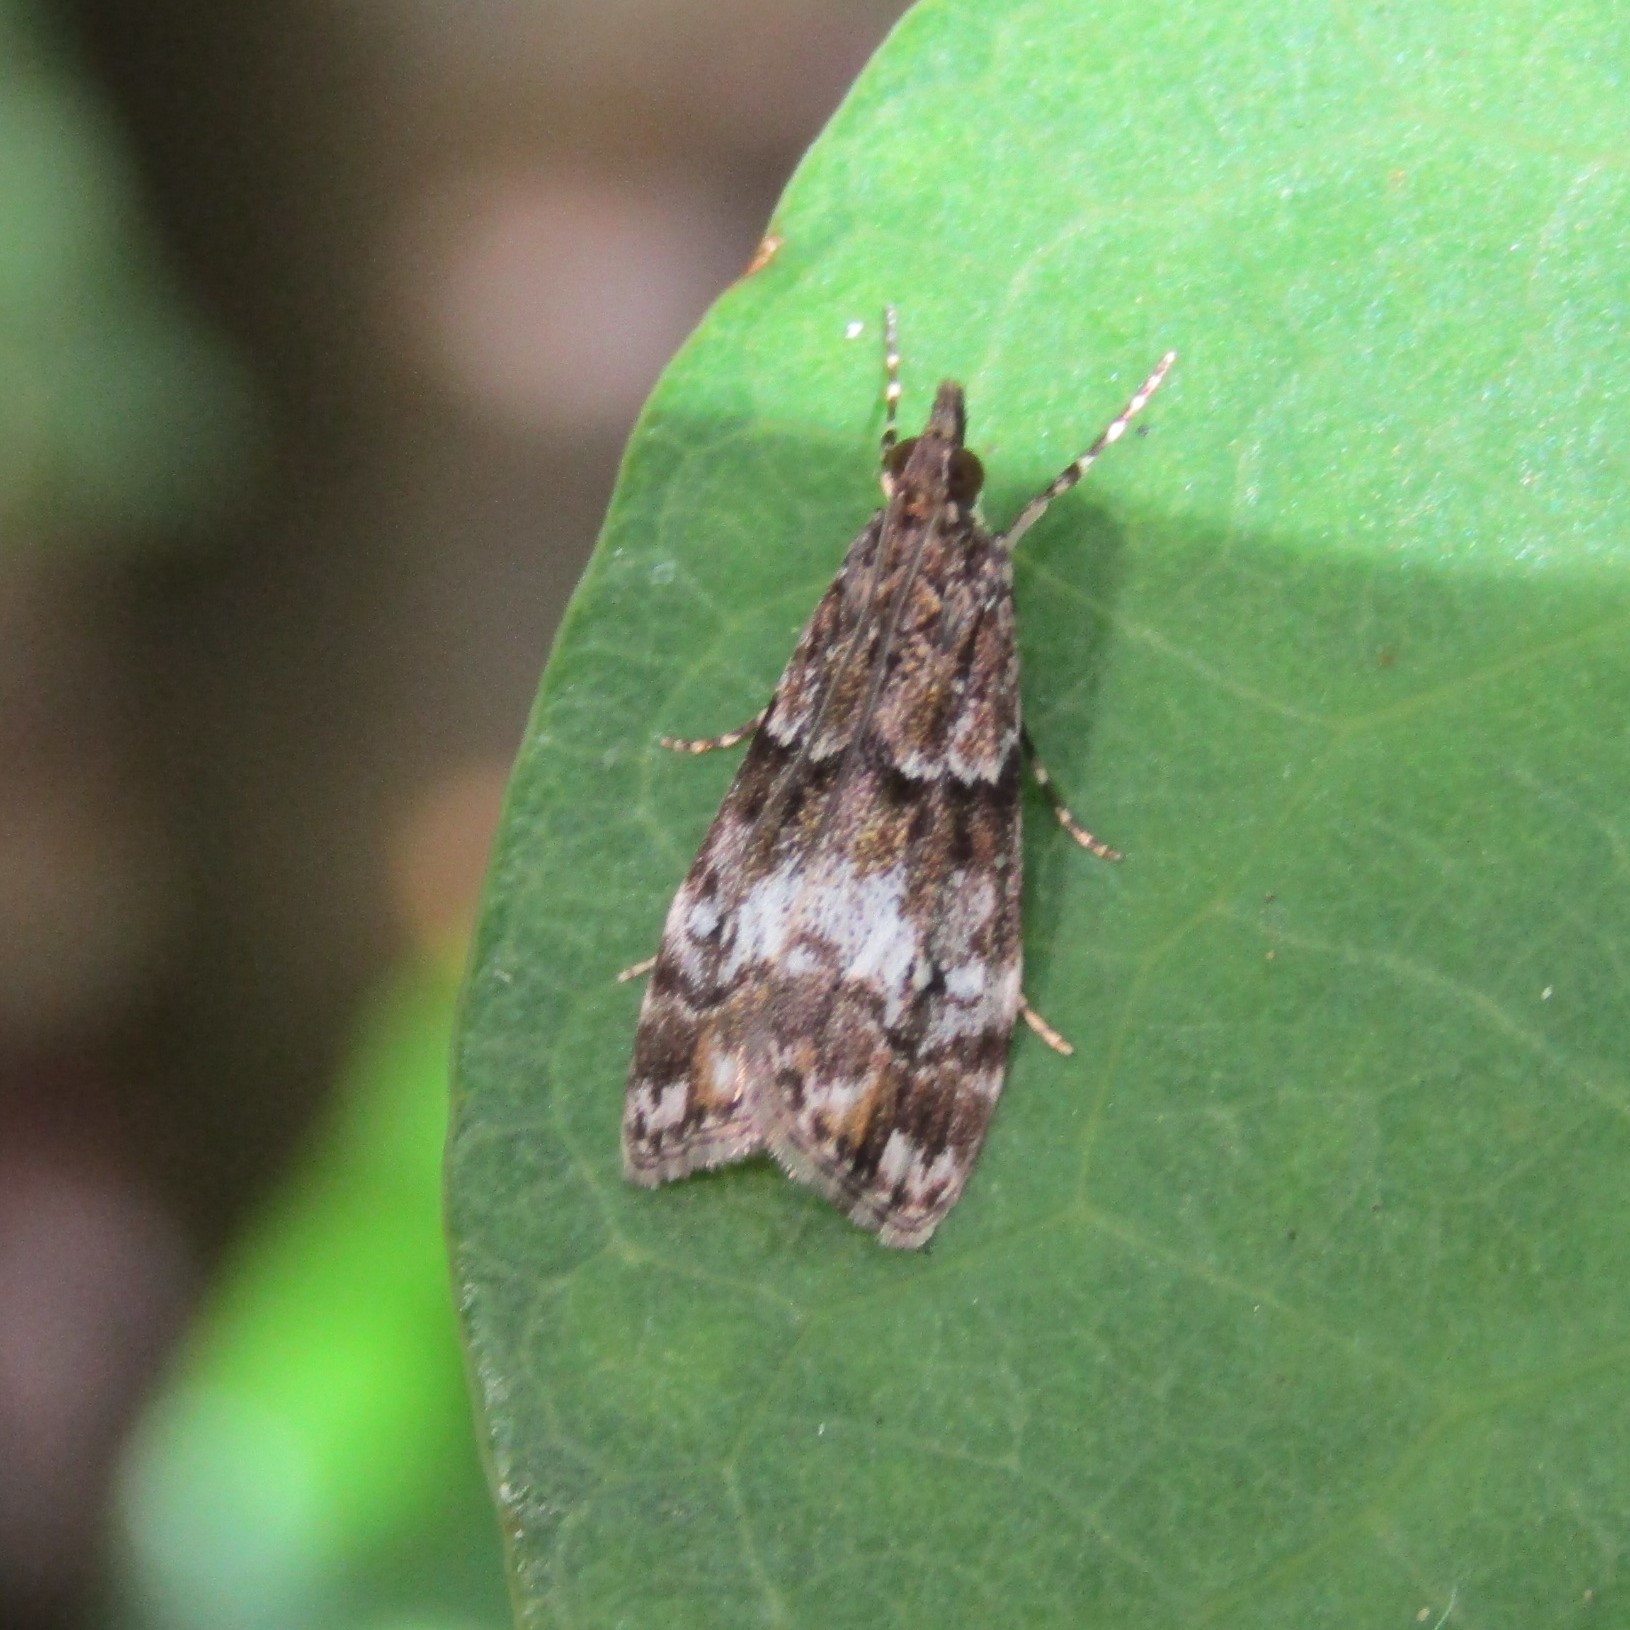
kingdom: Animalia
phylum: Arthropoda
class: Insecta
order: Lepidoptera
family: Crambidae
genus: Eudonia
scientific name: Eudonia minualis
